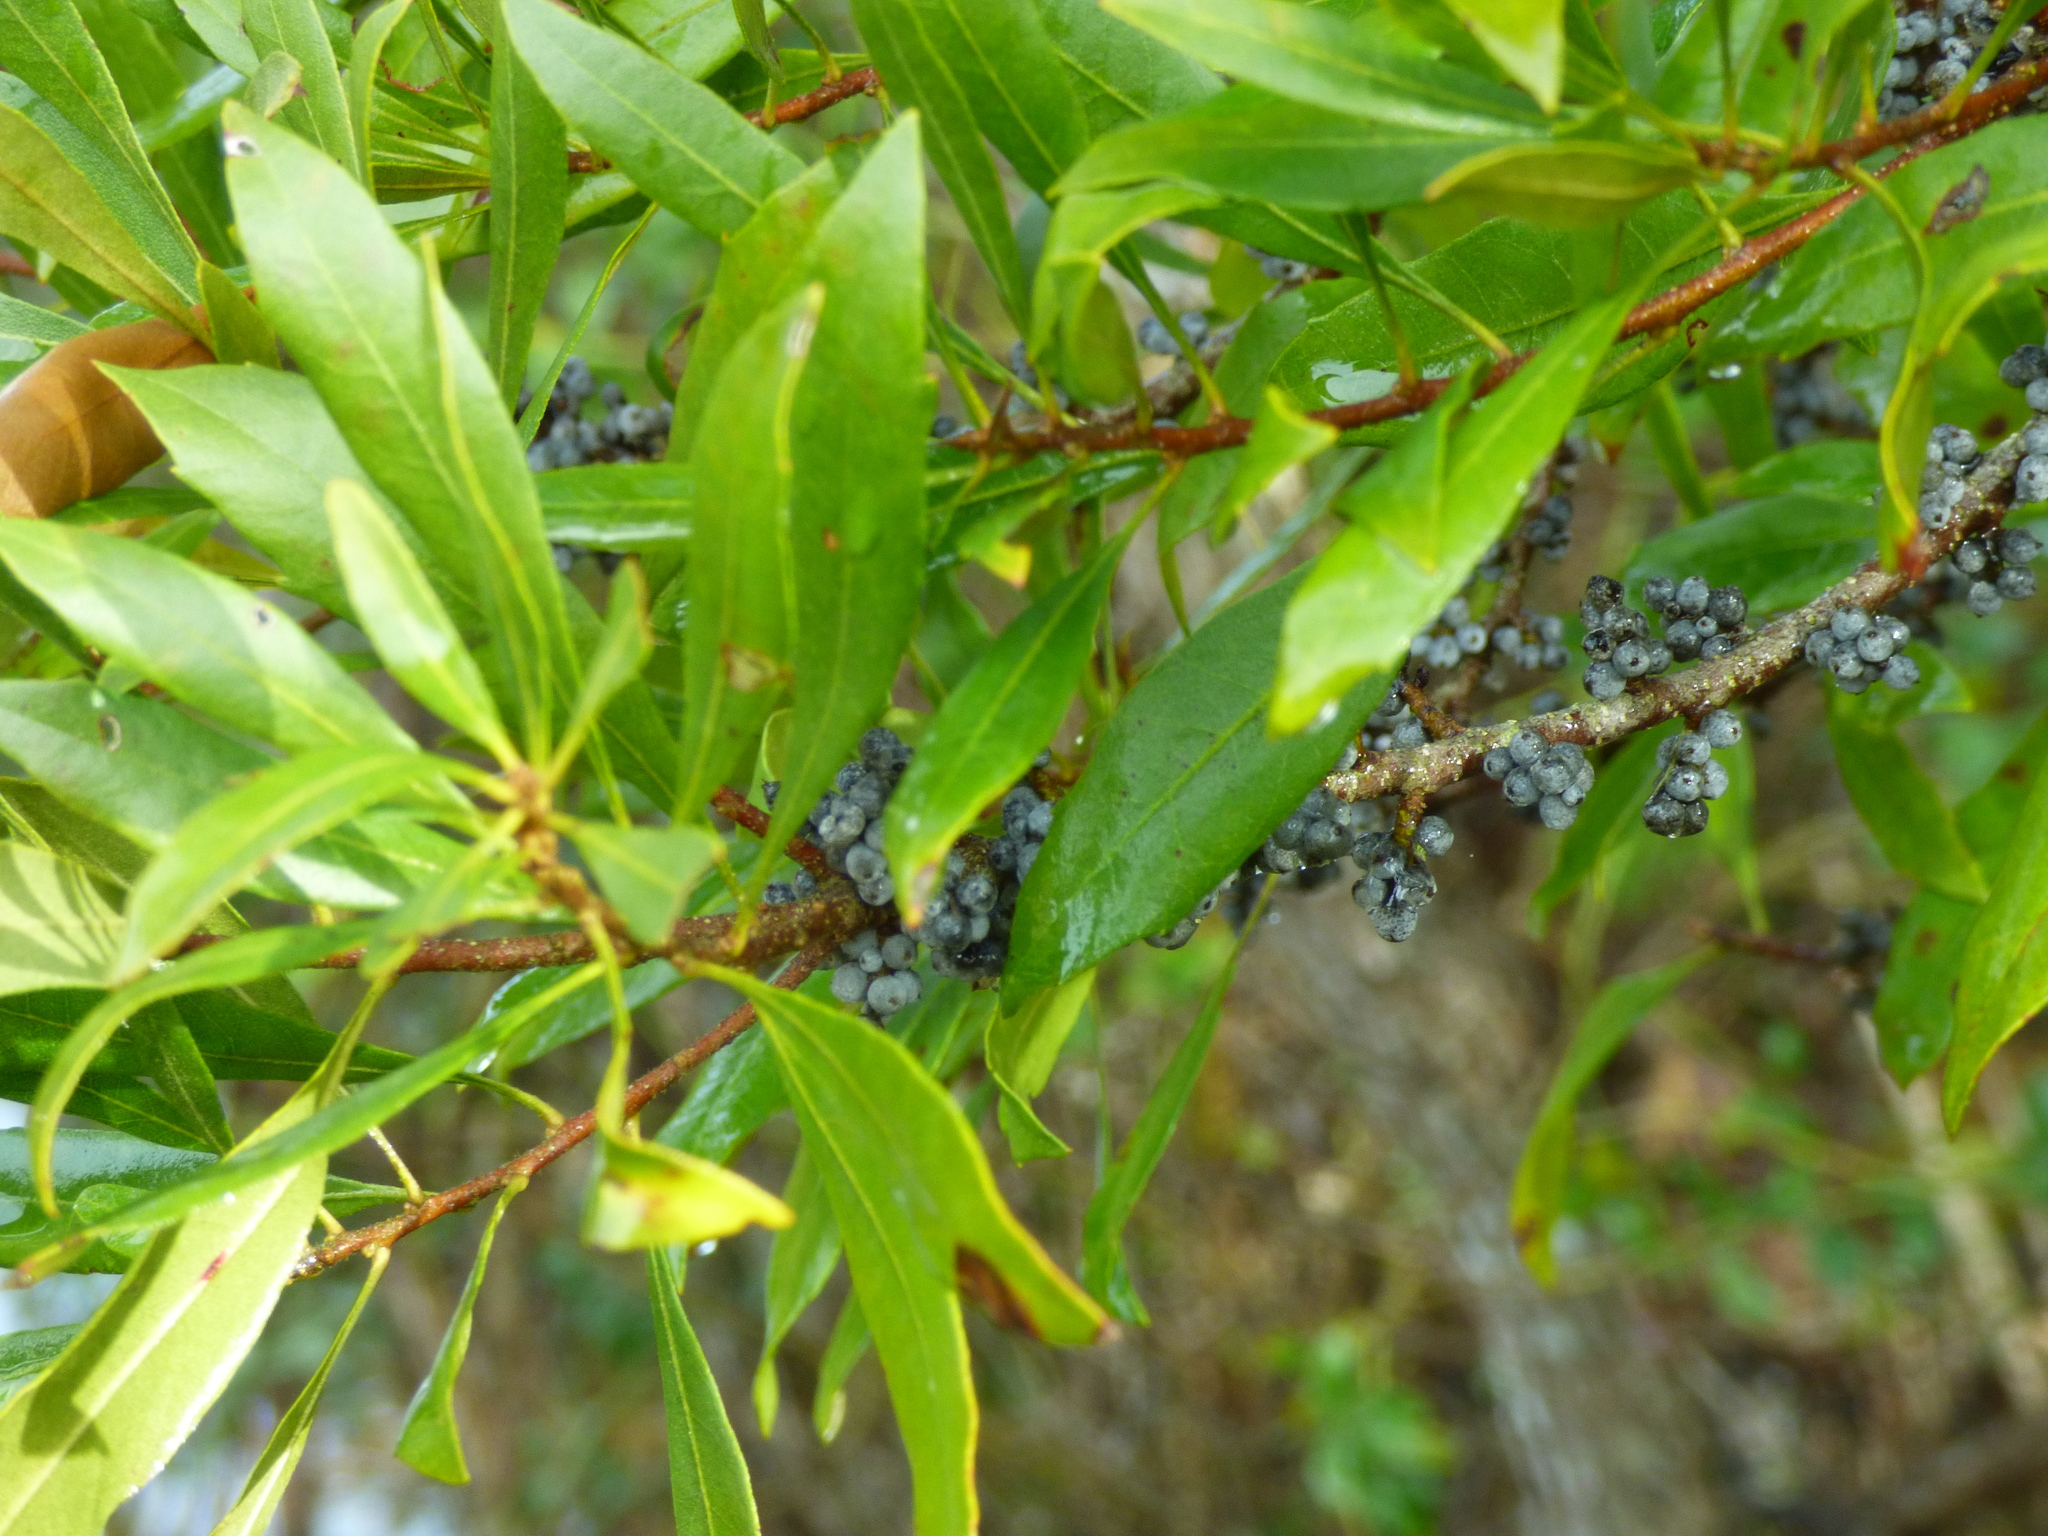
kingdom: Plantae
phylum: Tracheophyta
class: Magnoliopsida
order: Fagales
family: Myricaceae
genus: Morella
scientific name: Morella cerifera
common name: Wax myrtle
